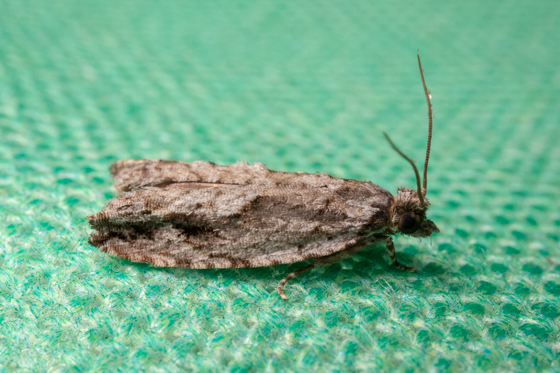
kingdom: Animalia
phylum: Arthropoda
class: Insecta
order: Lepidoptera
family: Tortricidae
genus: Gretchena
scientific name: Gretchena bolliana
